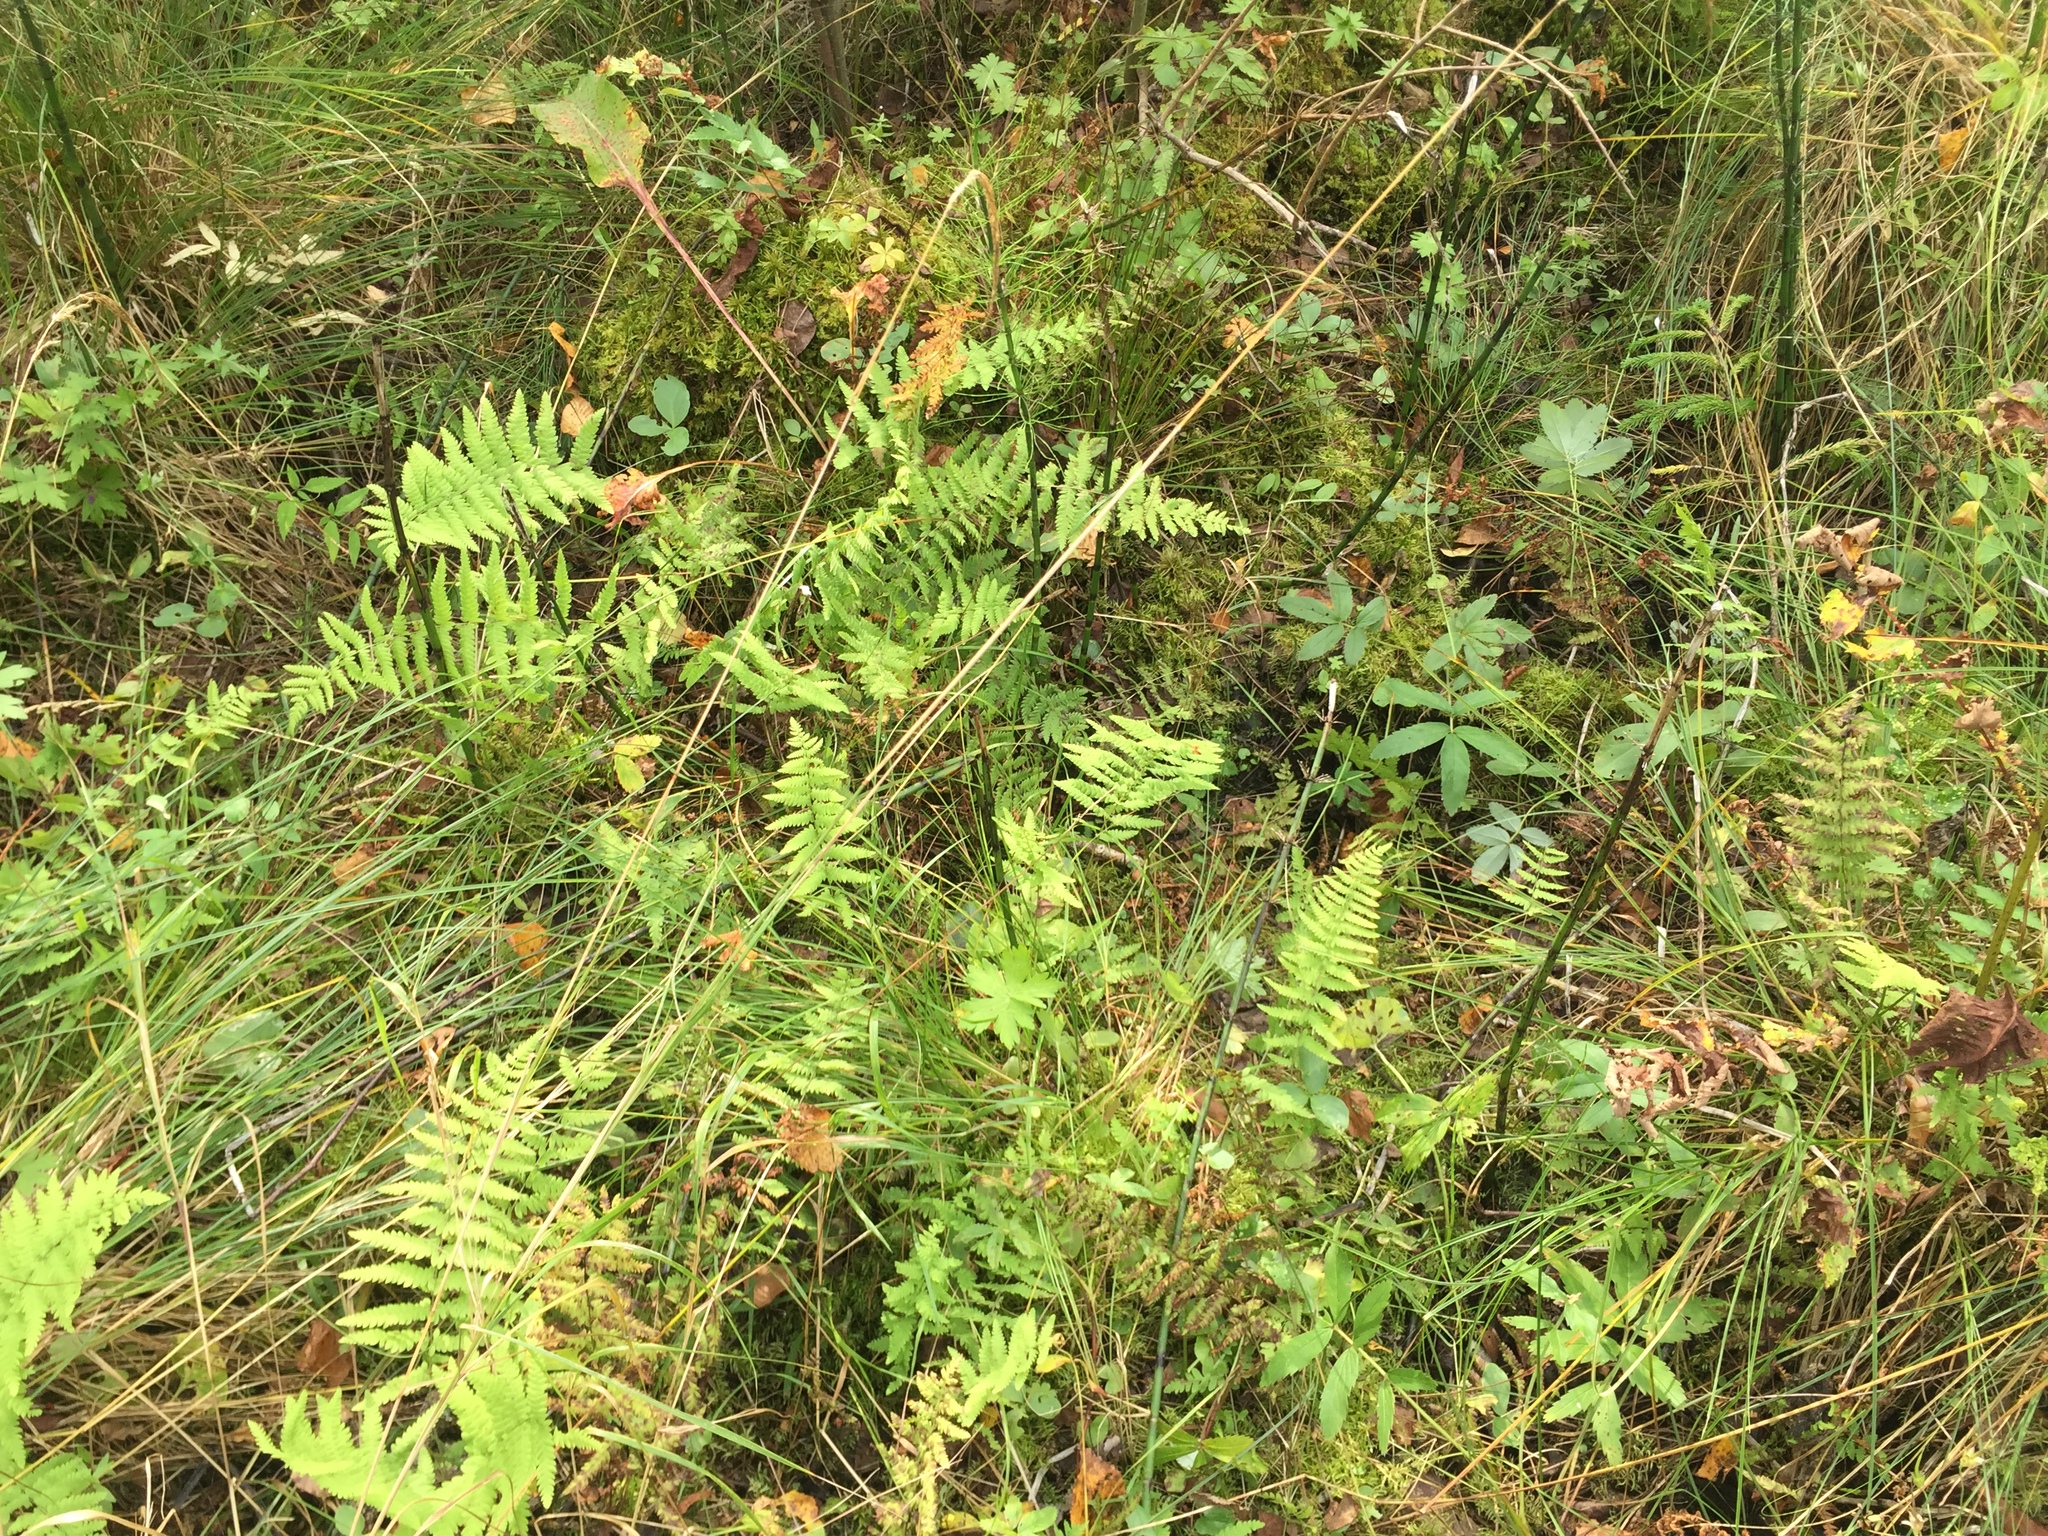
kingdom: Plantae
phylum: Tracheophyta
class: Polypodiopsida
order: Polypodiales
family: Thelypteridaceae
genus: Thelypteris
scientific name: Thelypteris palustris
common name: Marsh fern
